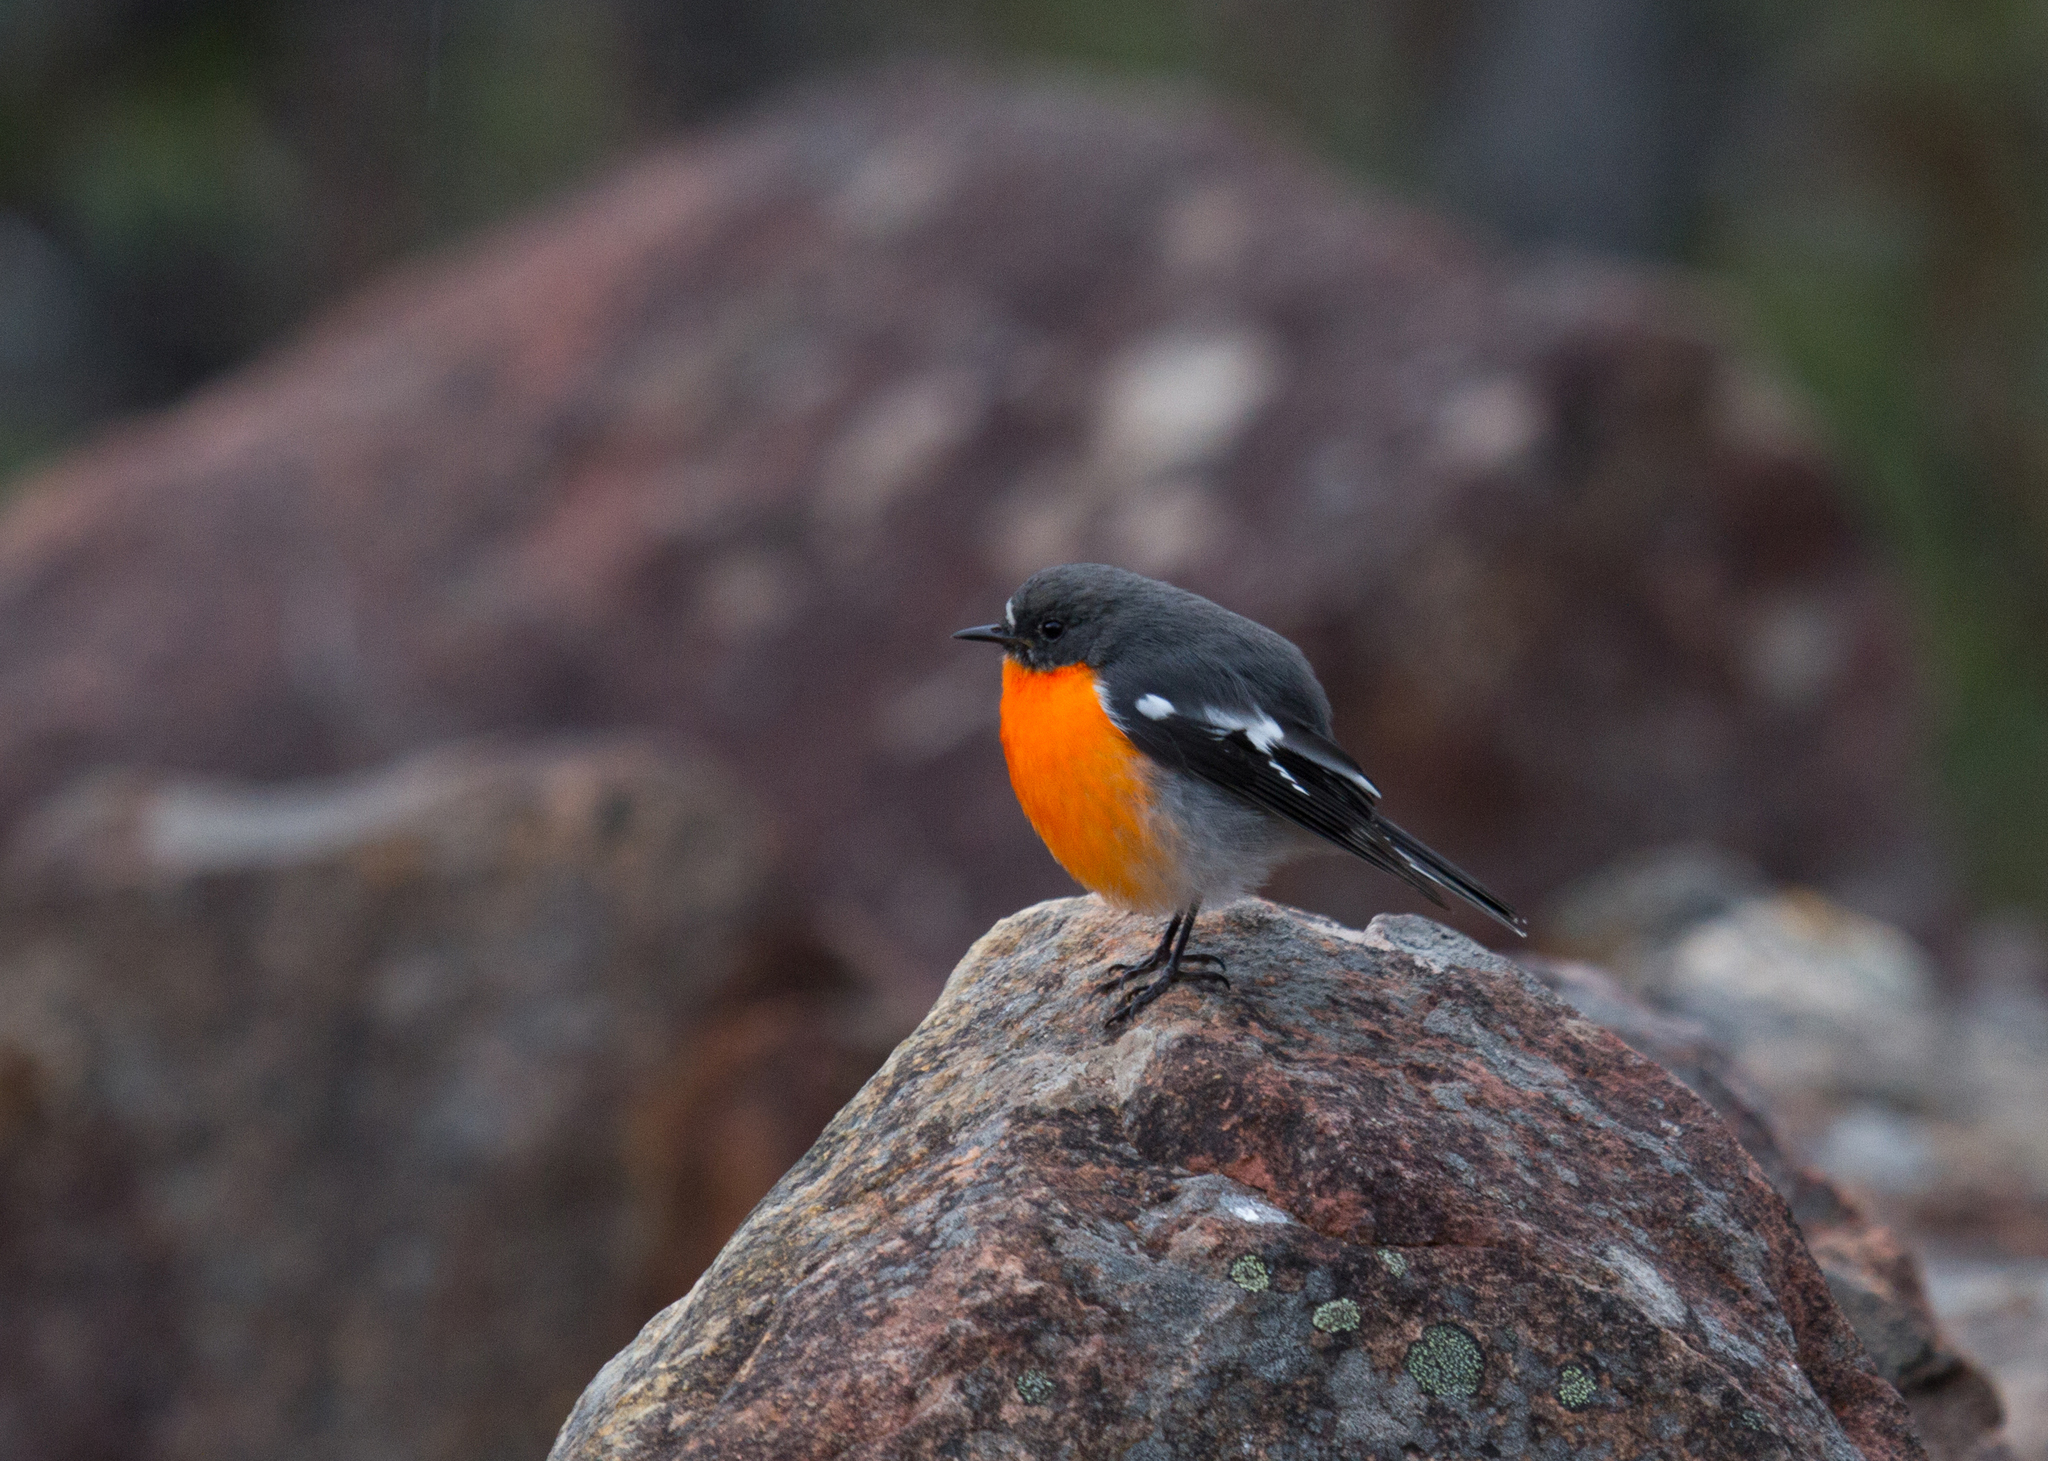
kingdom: Animalia
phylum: Chordata
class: Aves
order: Passeriformes
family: Petroicidae
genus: Petroica
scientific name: Petroica phoenicea
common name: Flame robin
